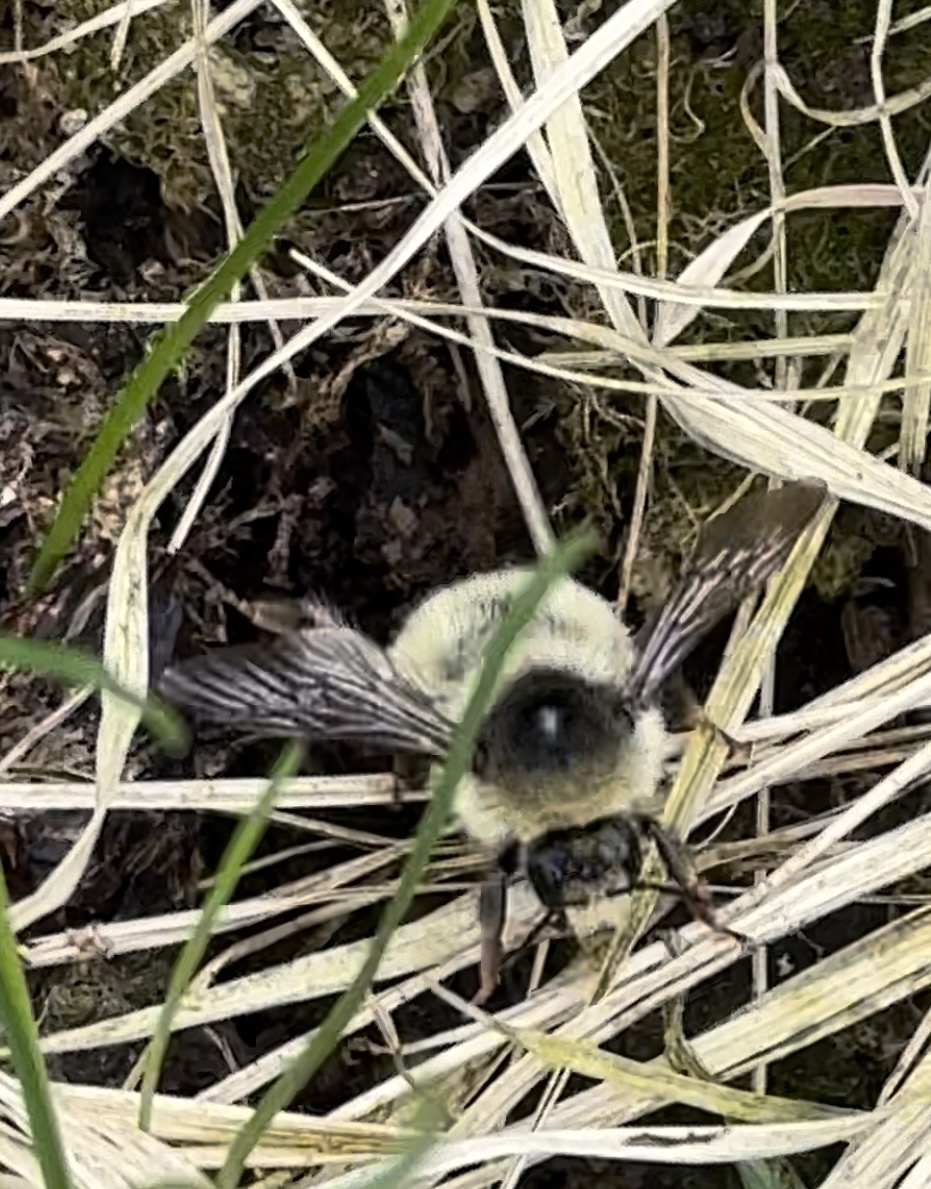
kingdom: Animalia
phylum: Arthropoda
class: Insecta
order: Hymenoptera
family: Apidae
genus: Bombus
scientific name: Bombus sylvarum
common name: Shrill carder bee
